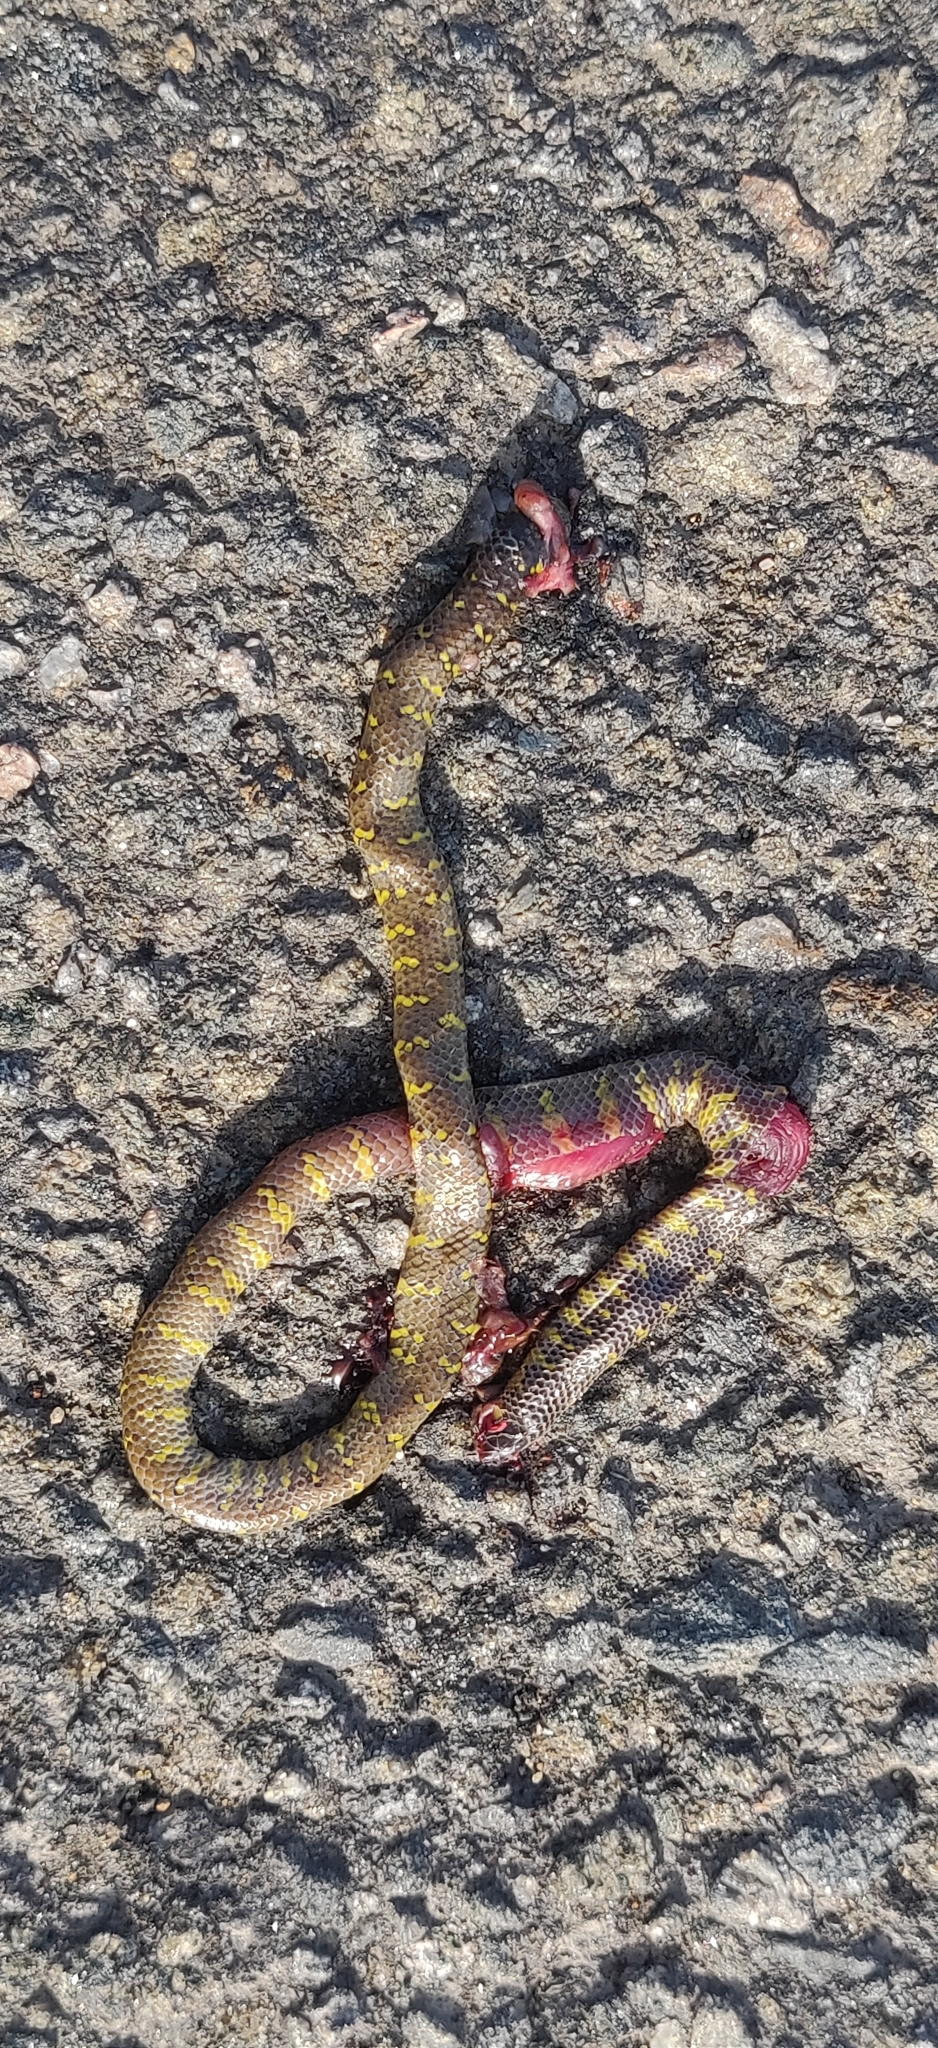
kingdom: Animalia
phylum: Chordata
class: Squamata
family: Uropeltidae
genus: Uropeltis
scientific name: Uropeltis ocellata
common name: Ocellated earth snake
